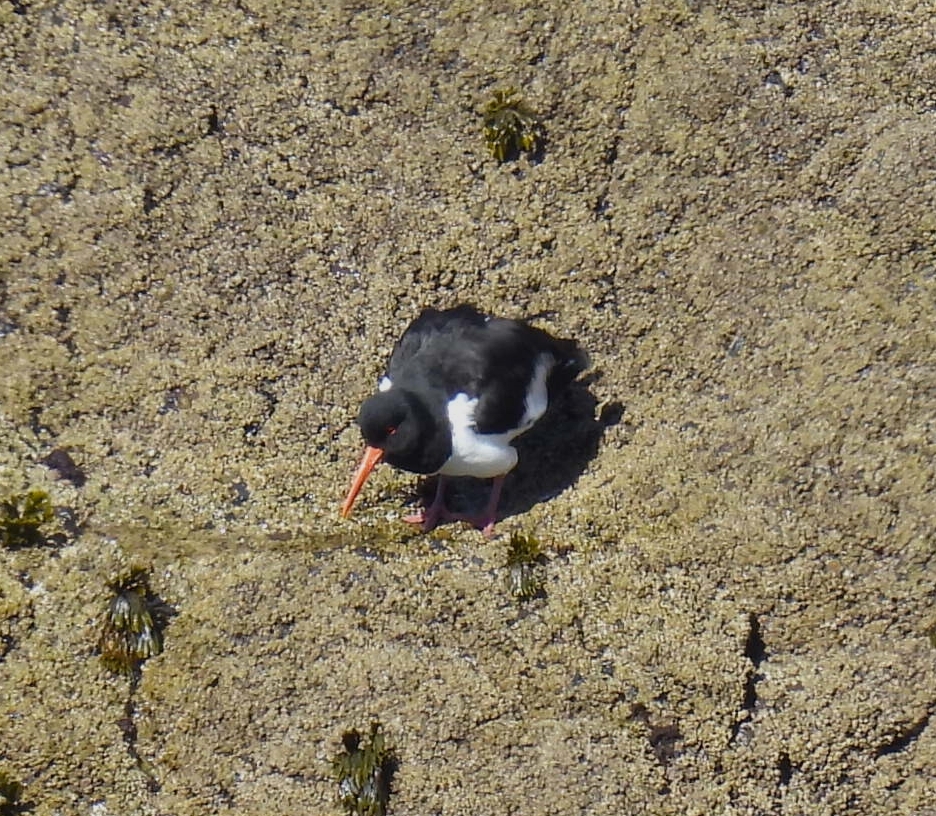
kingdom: Animalia
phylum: Chordata
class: Aves
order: Charadriiformes
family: Haematopodidae
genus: Haematopus
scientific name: Haematopus ostralegus
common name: Eurasian oystercatcher
